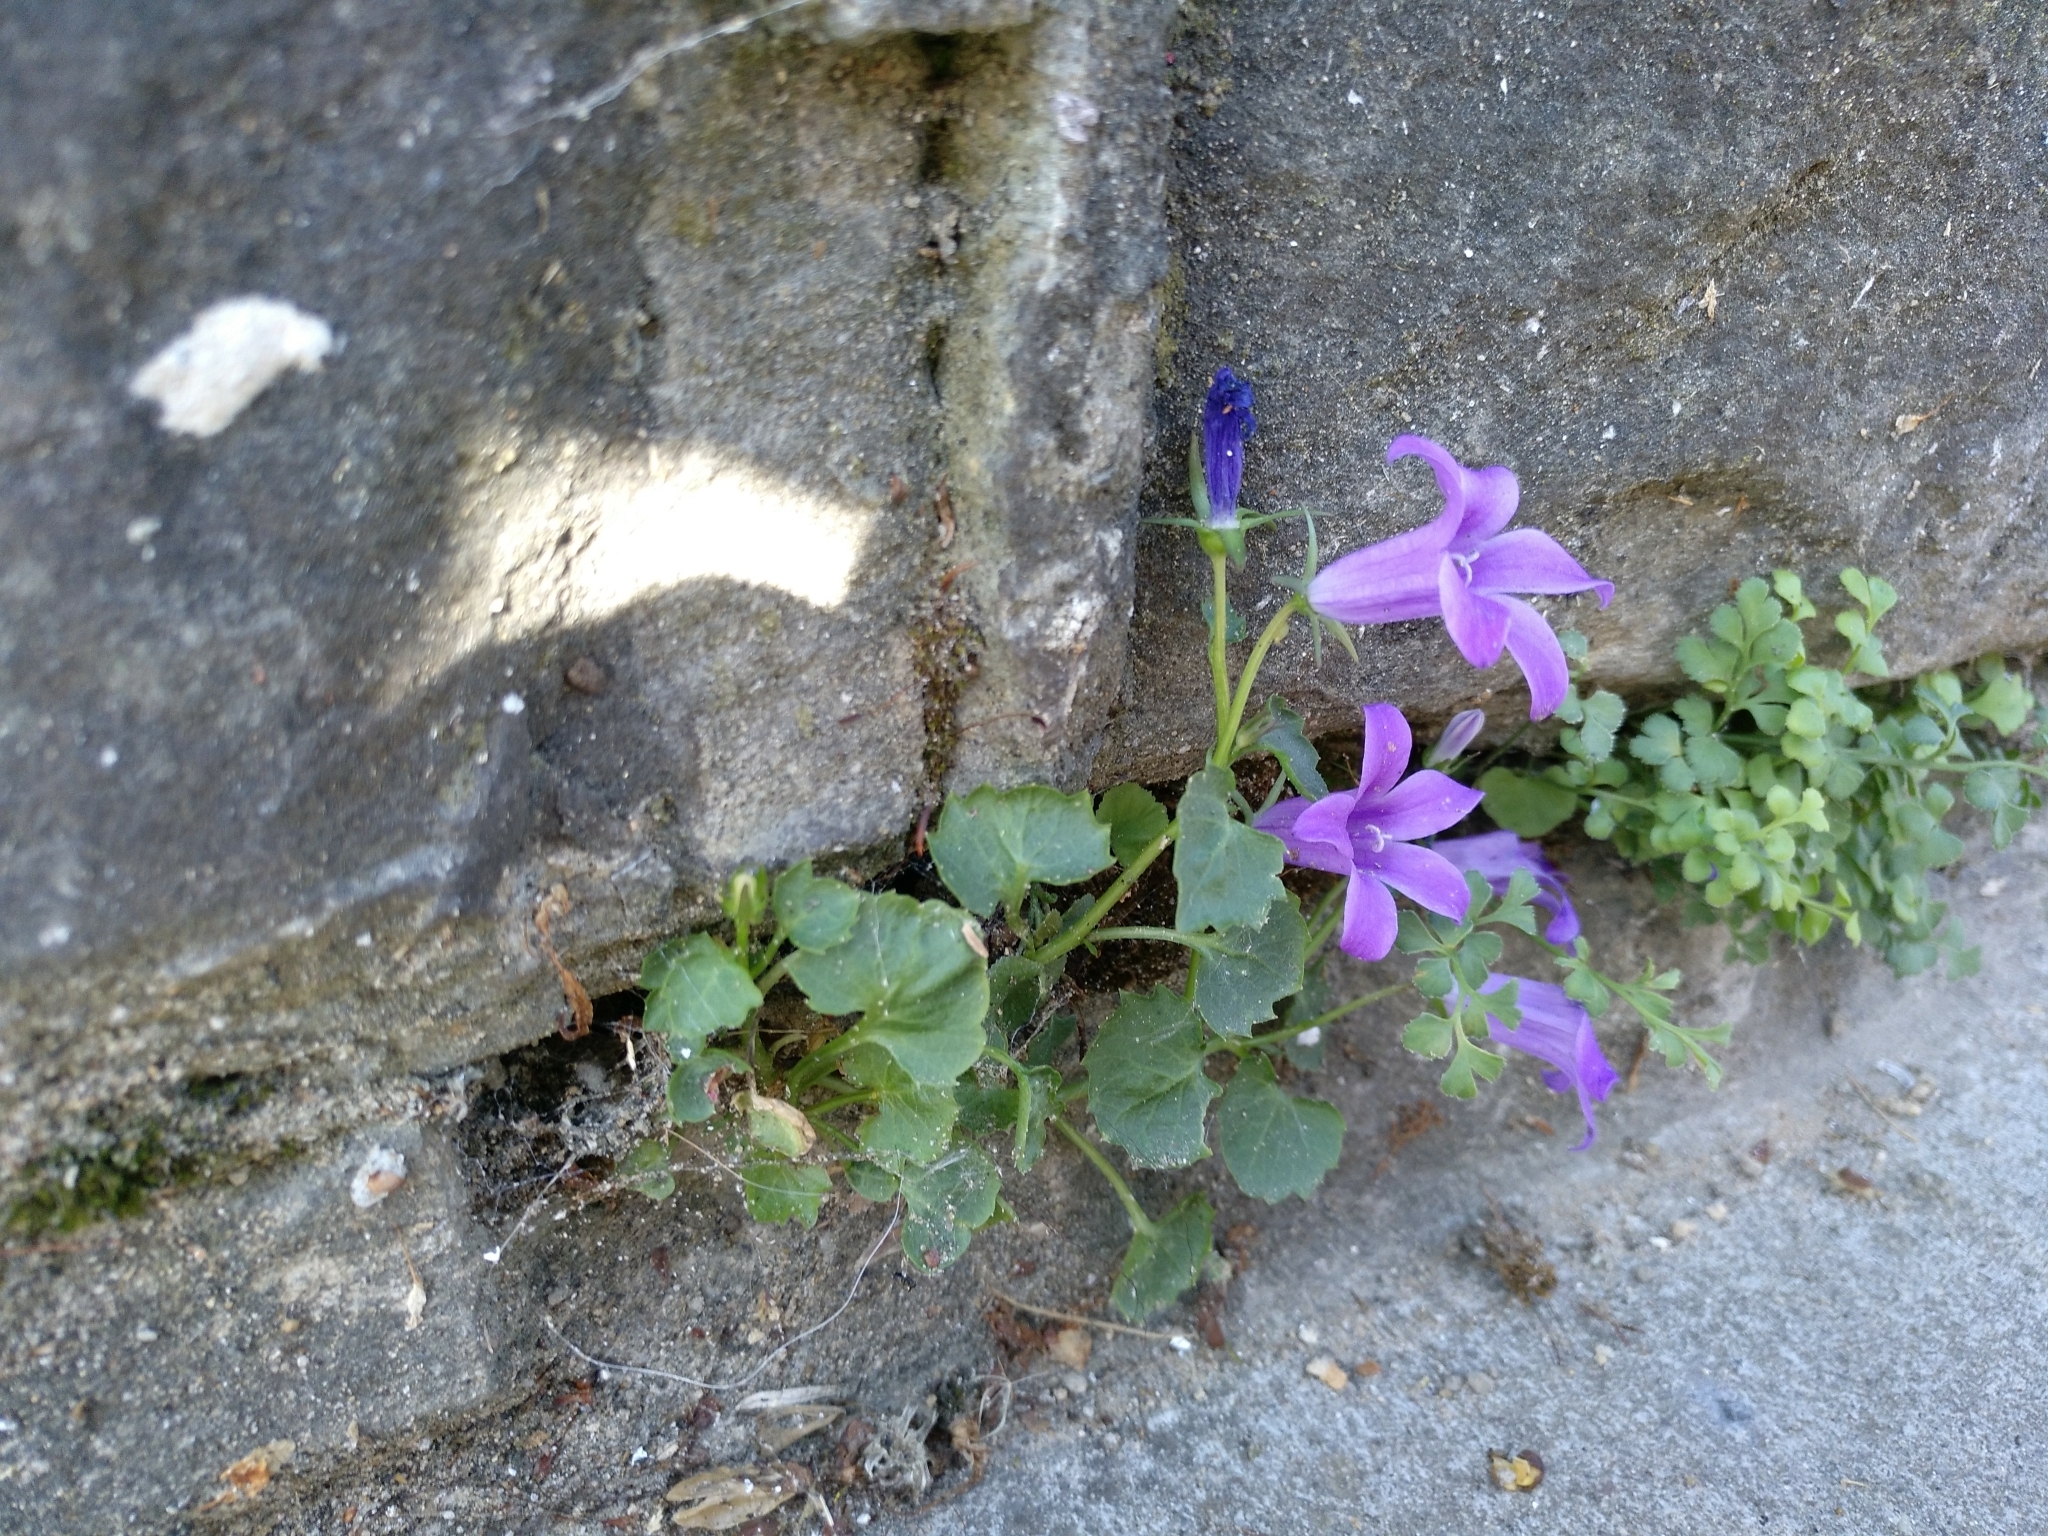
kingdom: Plantae
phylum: Tracheophyta
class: Magnoliopsida
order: Asterales
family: Campanulaceae
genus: Campanula
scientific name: Campanula poscharskyana
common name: Trailing bellflower
